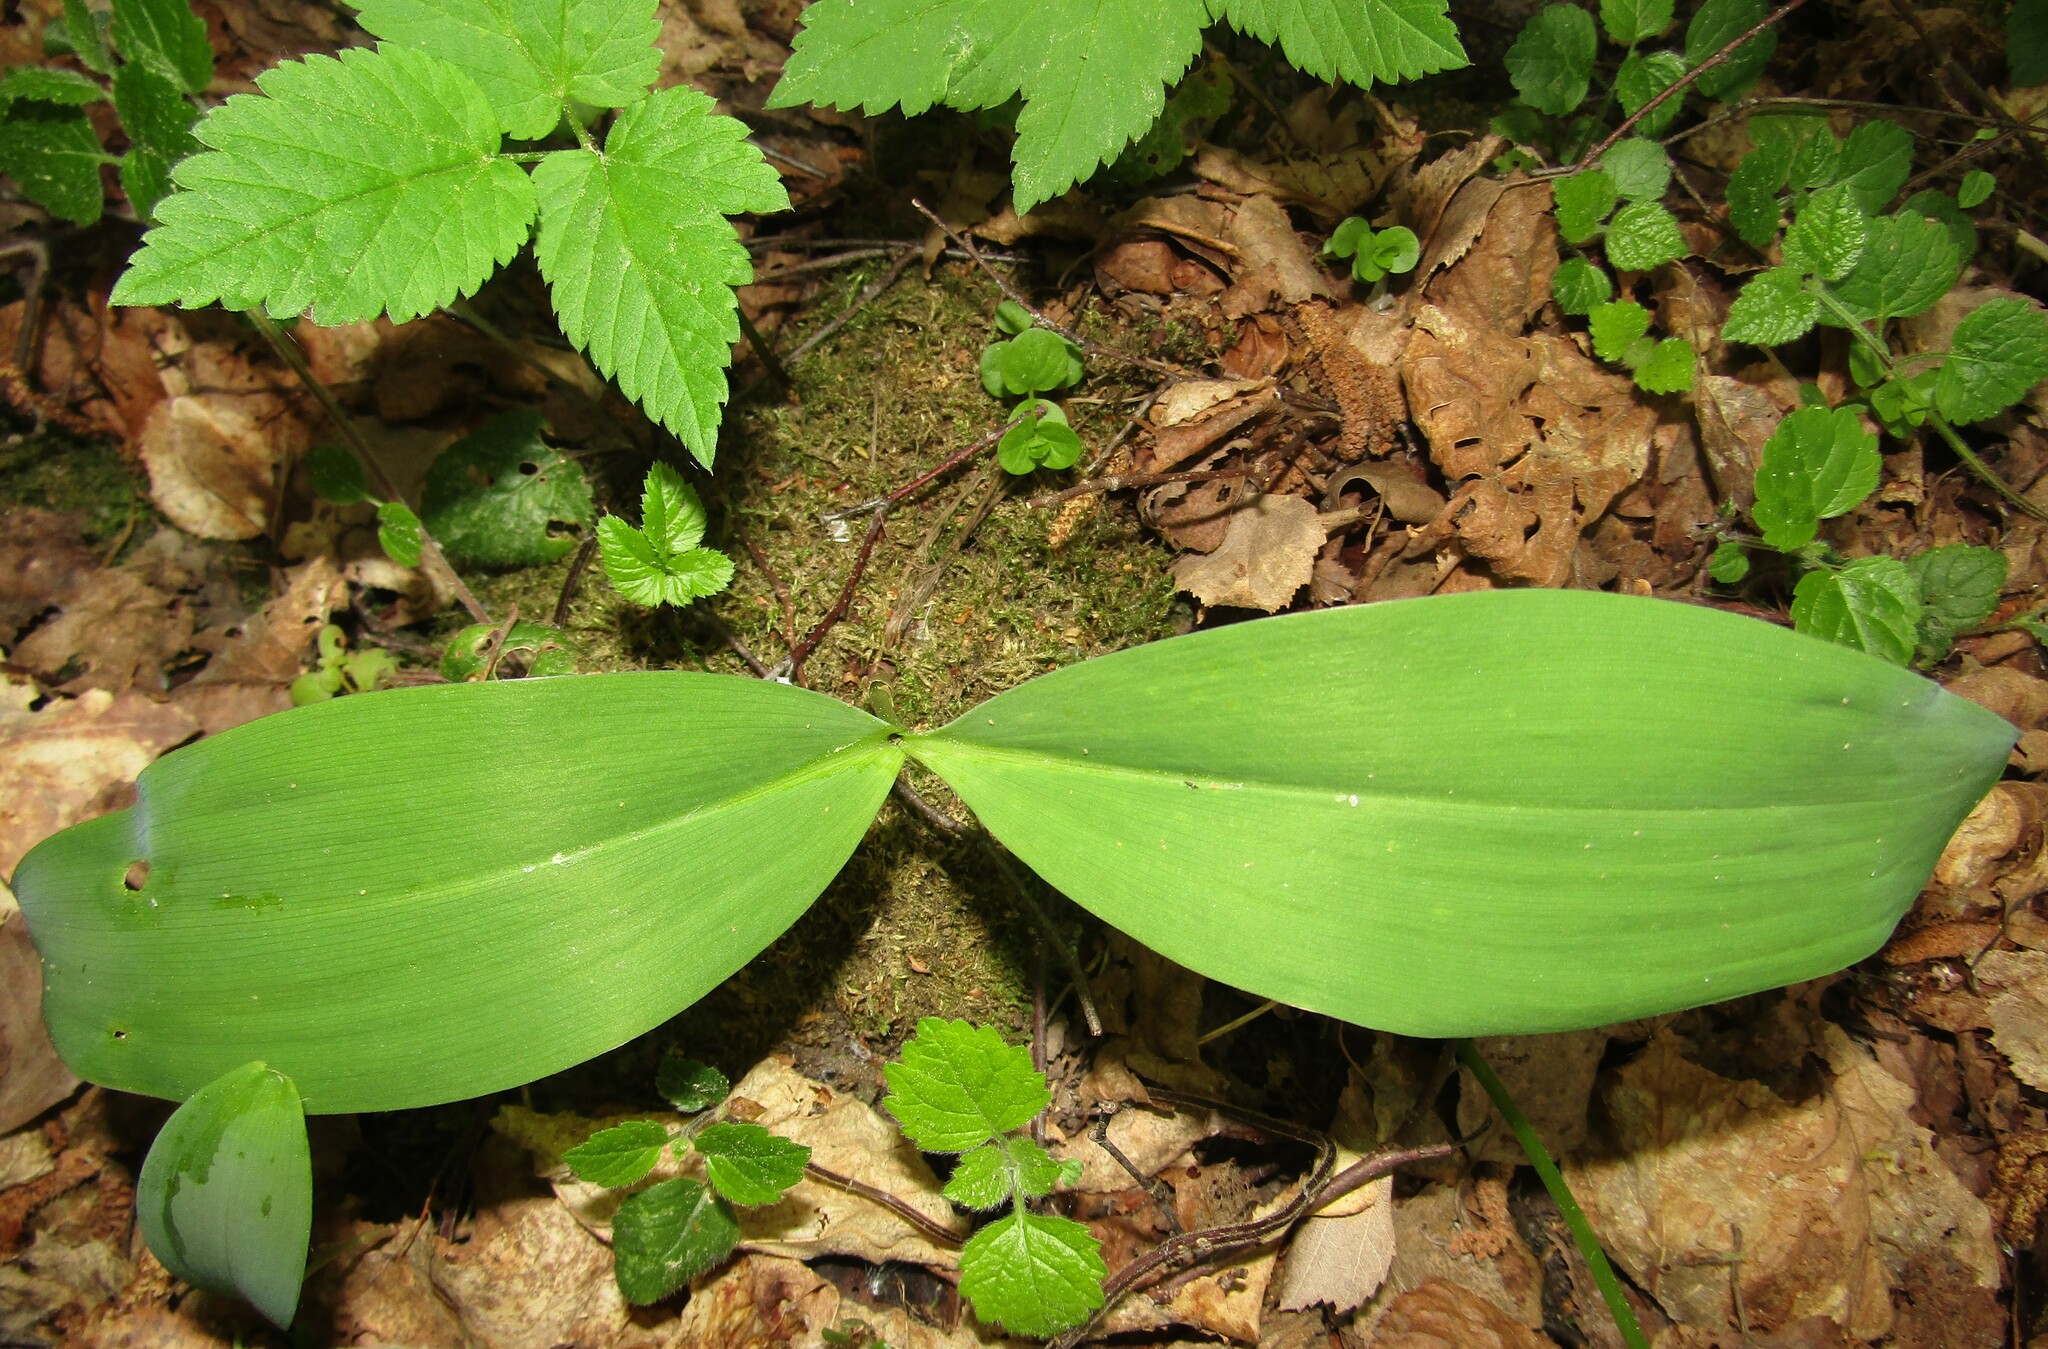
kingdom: Plantae
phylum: Tracheophyta
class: Liliopsida
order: Asparagales
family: Asparagaceae
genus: Convallaria
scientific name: Convallaria majalis
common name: Lily-of-the-valley
